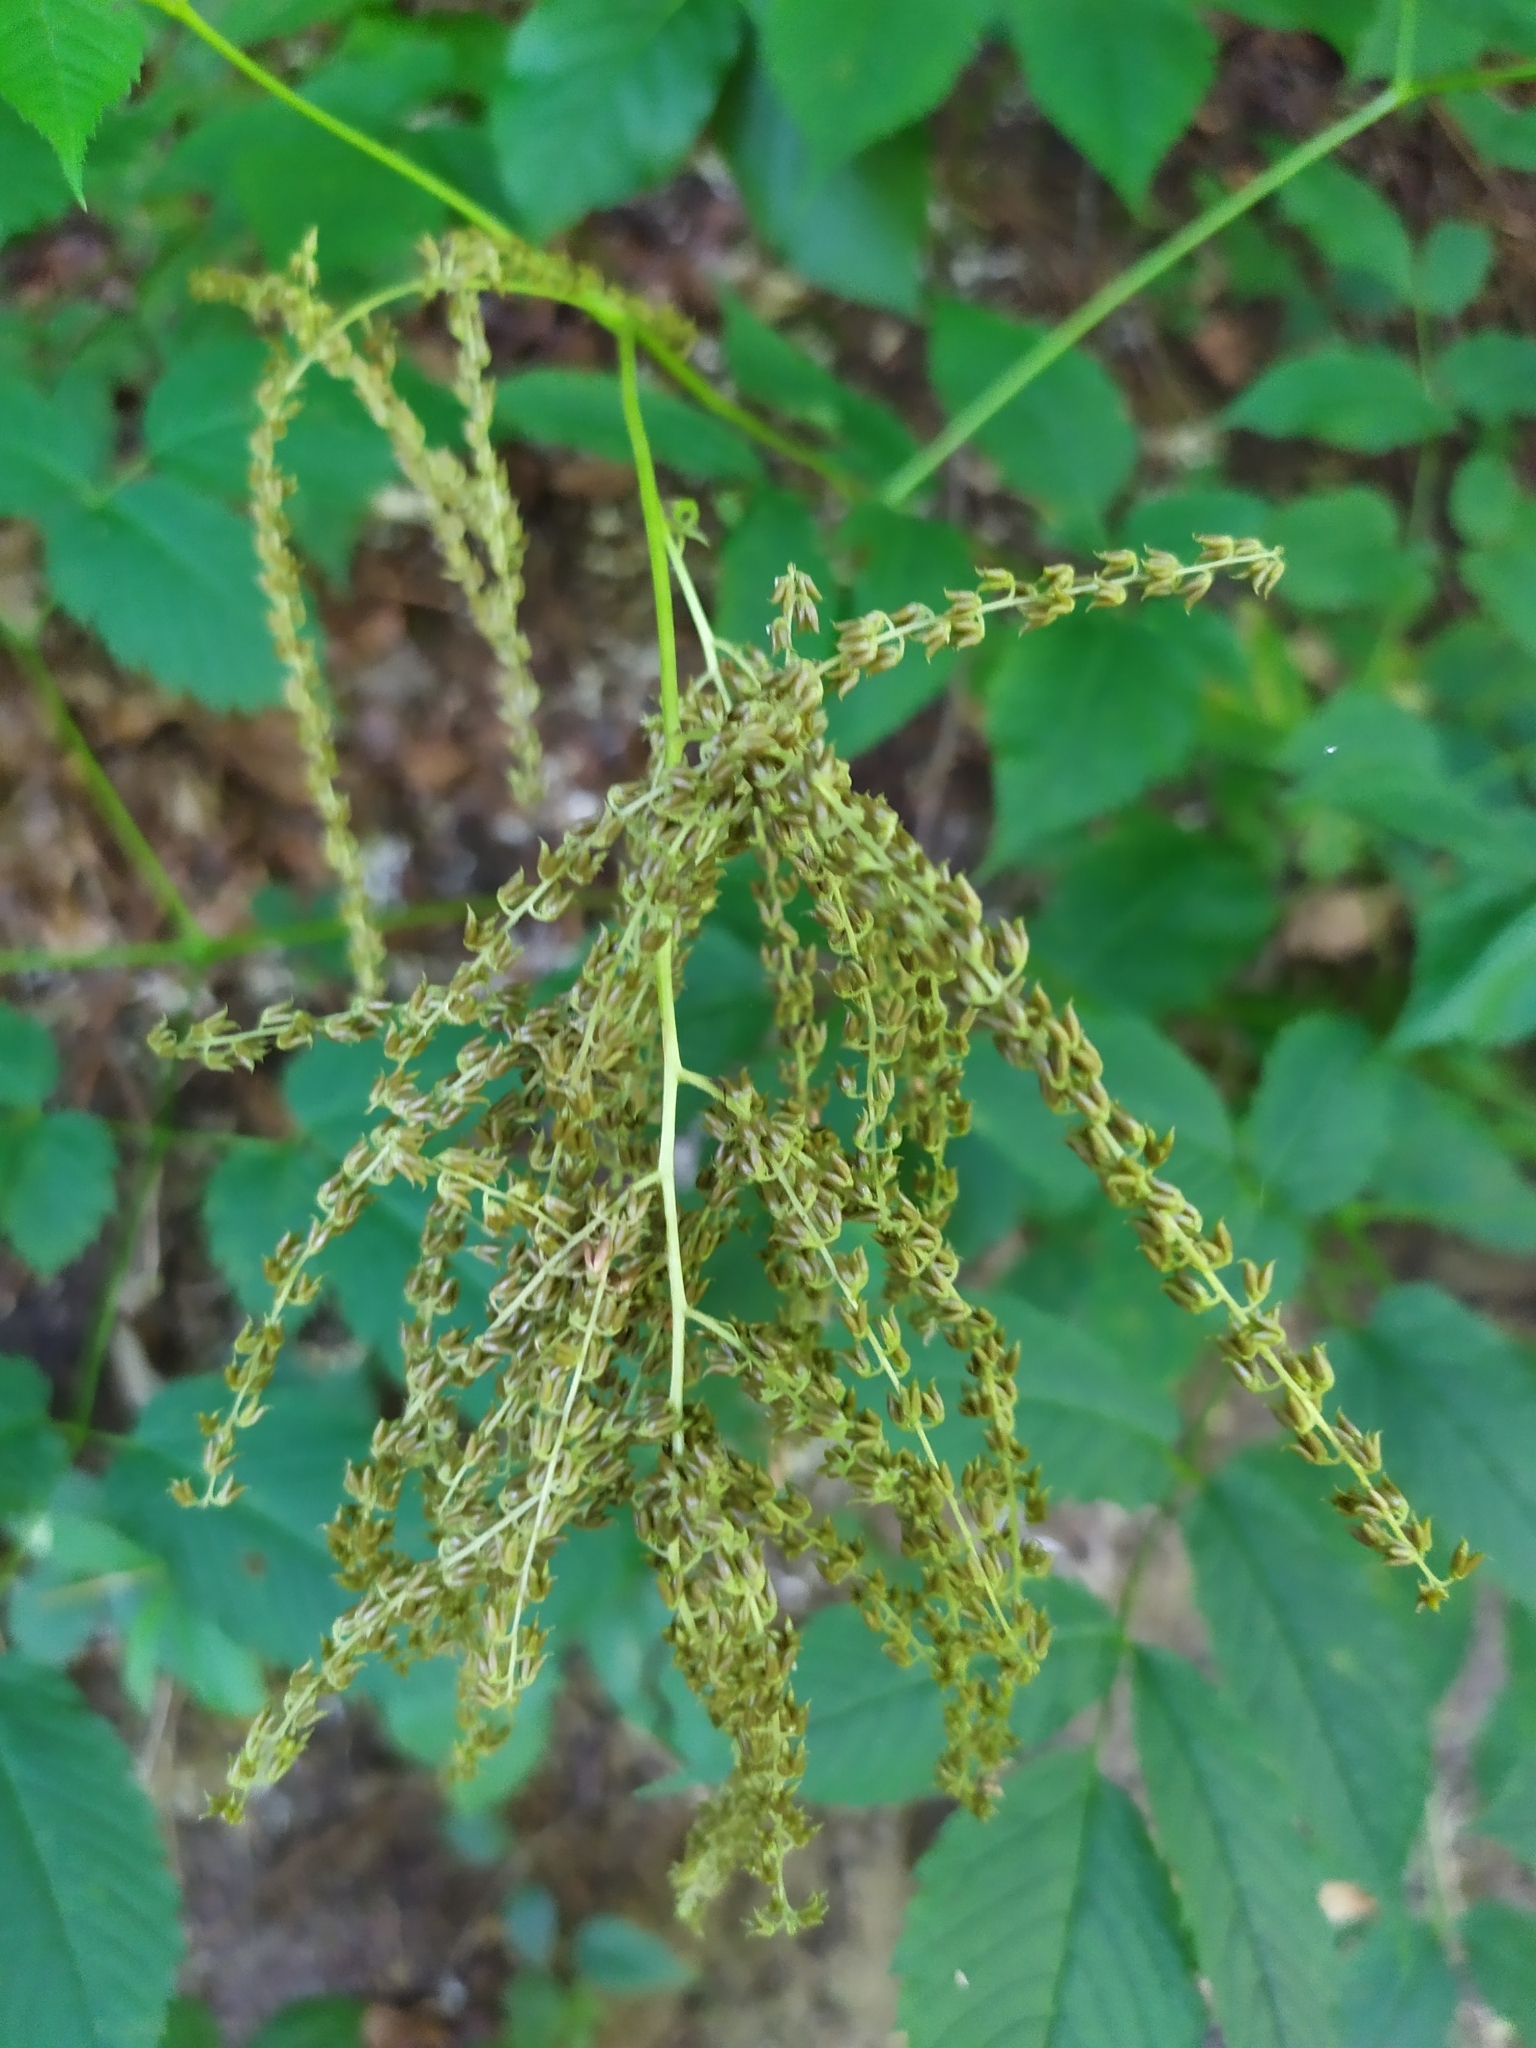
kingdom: Plantae
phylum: Tracheophyta
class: Magnoliopsida
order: Rosales
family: Rosaceae
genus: Aruncus
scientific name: Aruncus dioicus
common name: Buck's-beard
